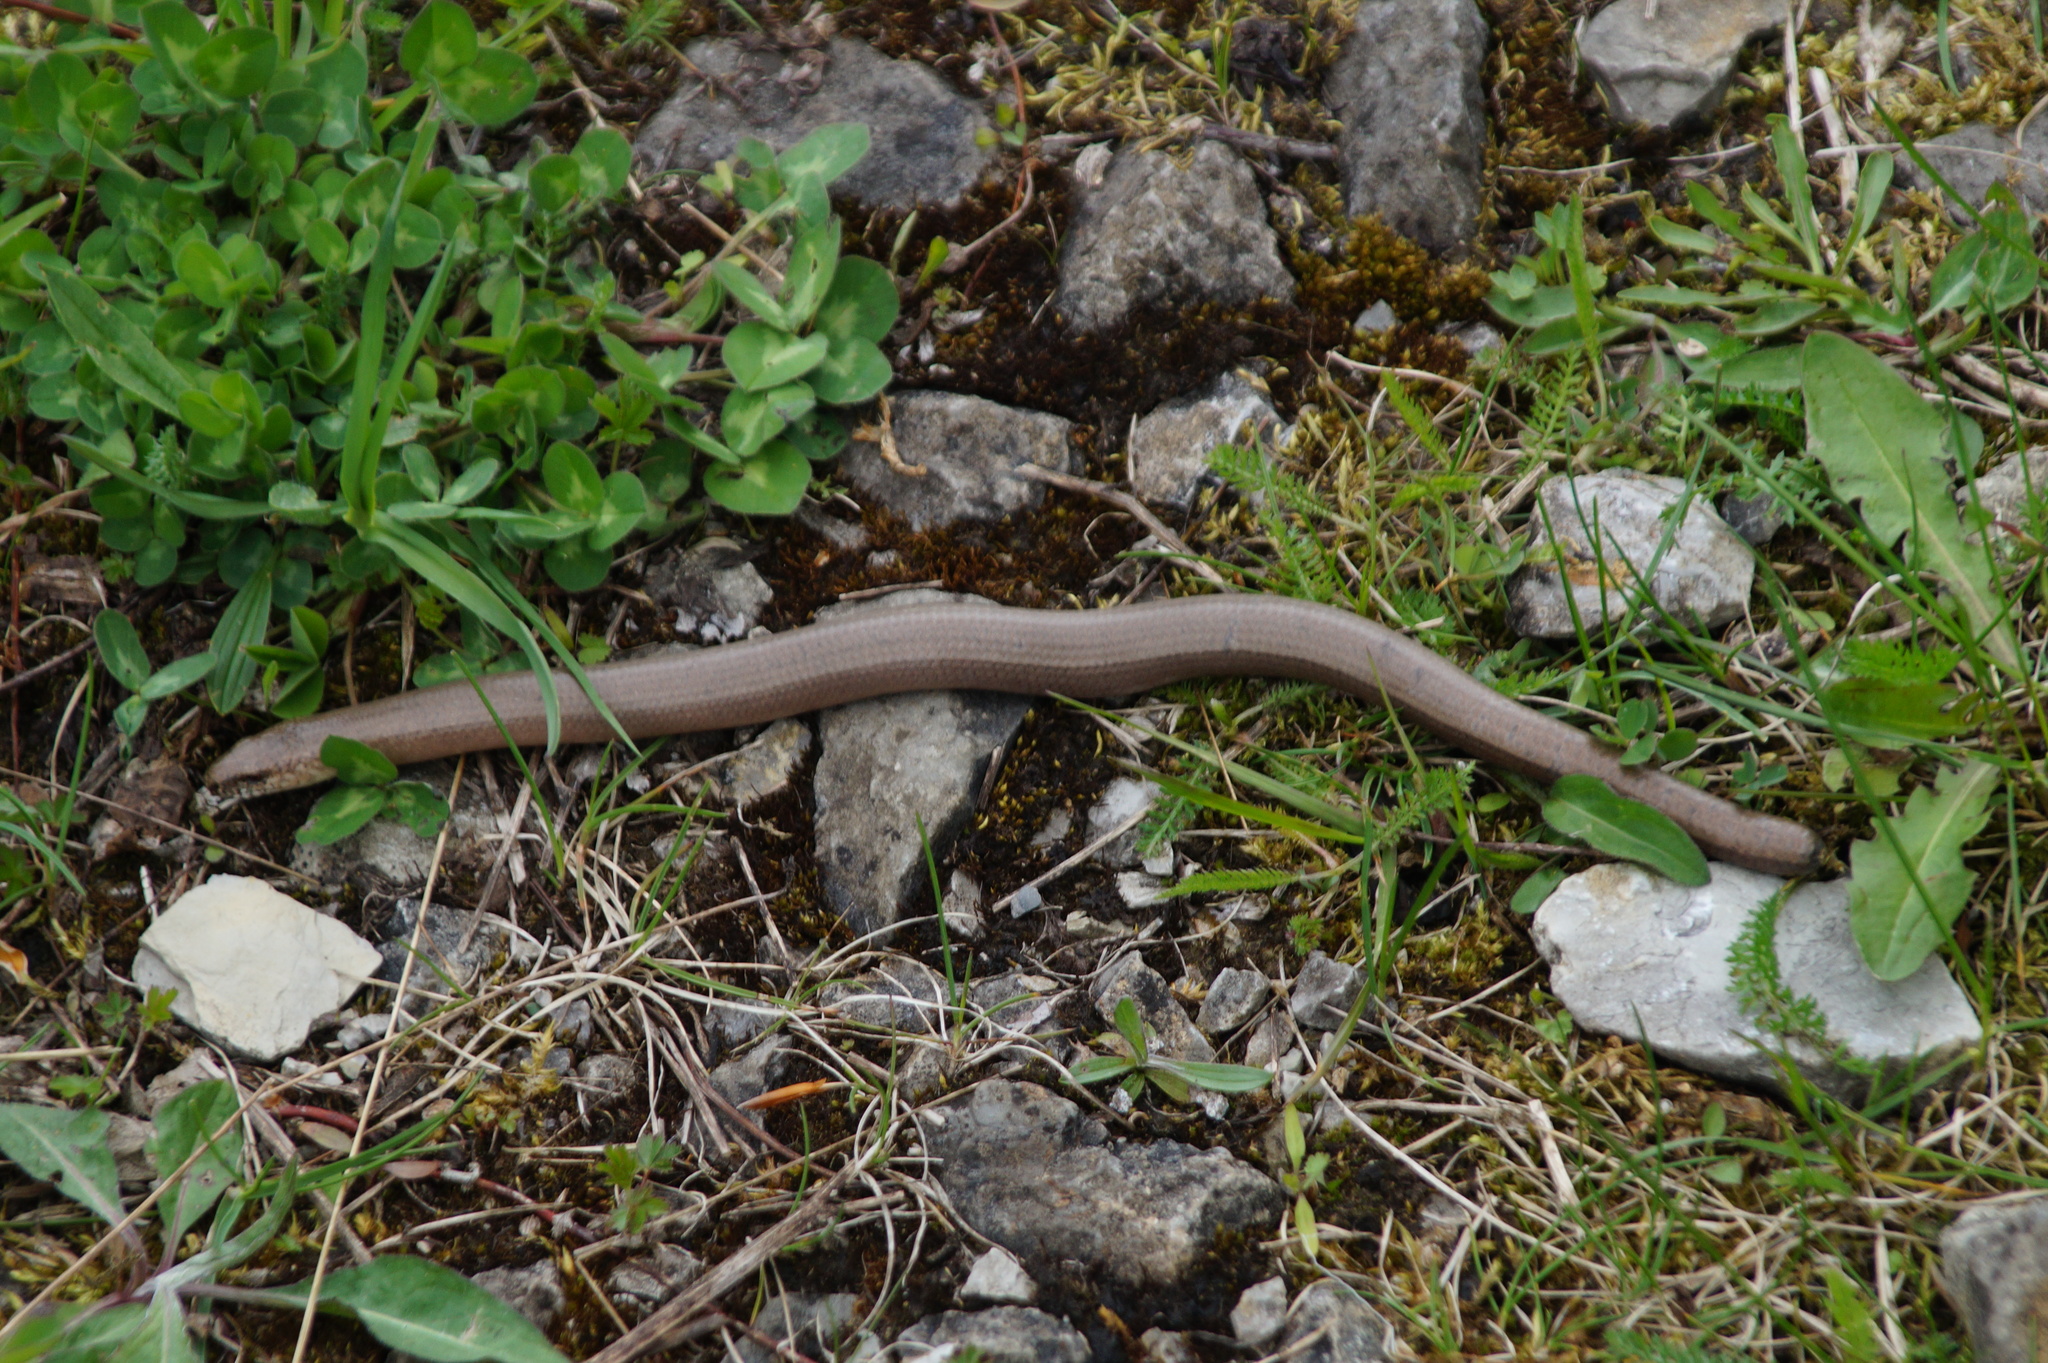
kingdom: Animalia
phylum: Chordata
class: Squamata
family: Anguidae
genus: Anguis
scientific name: Anguis fragilis
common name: Slow worm
